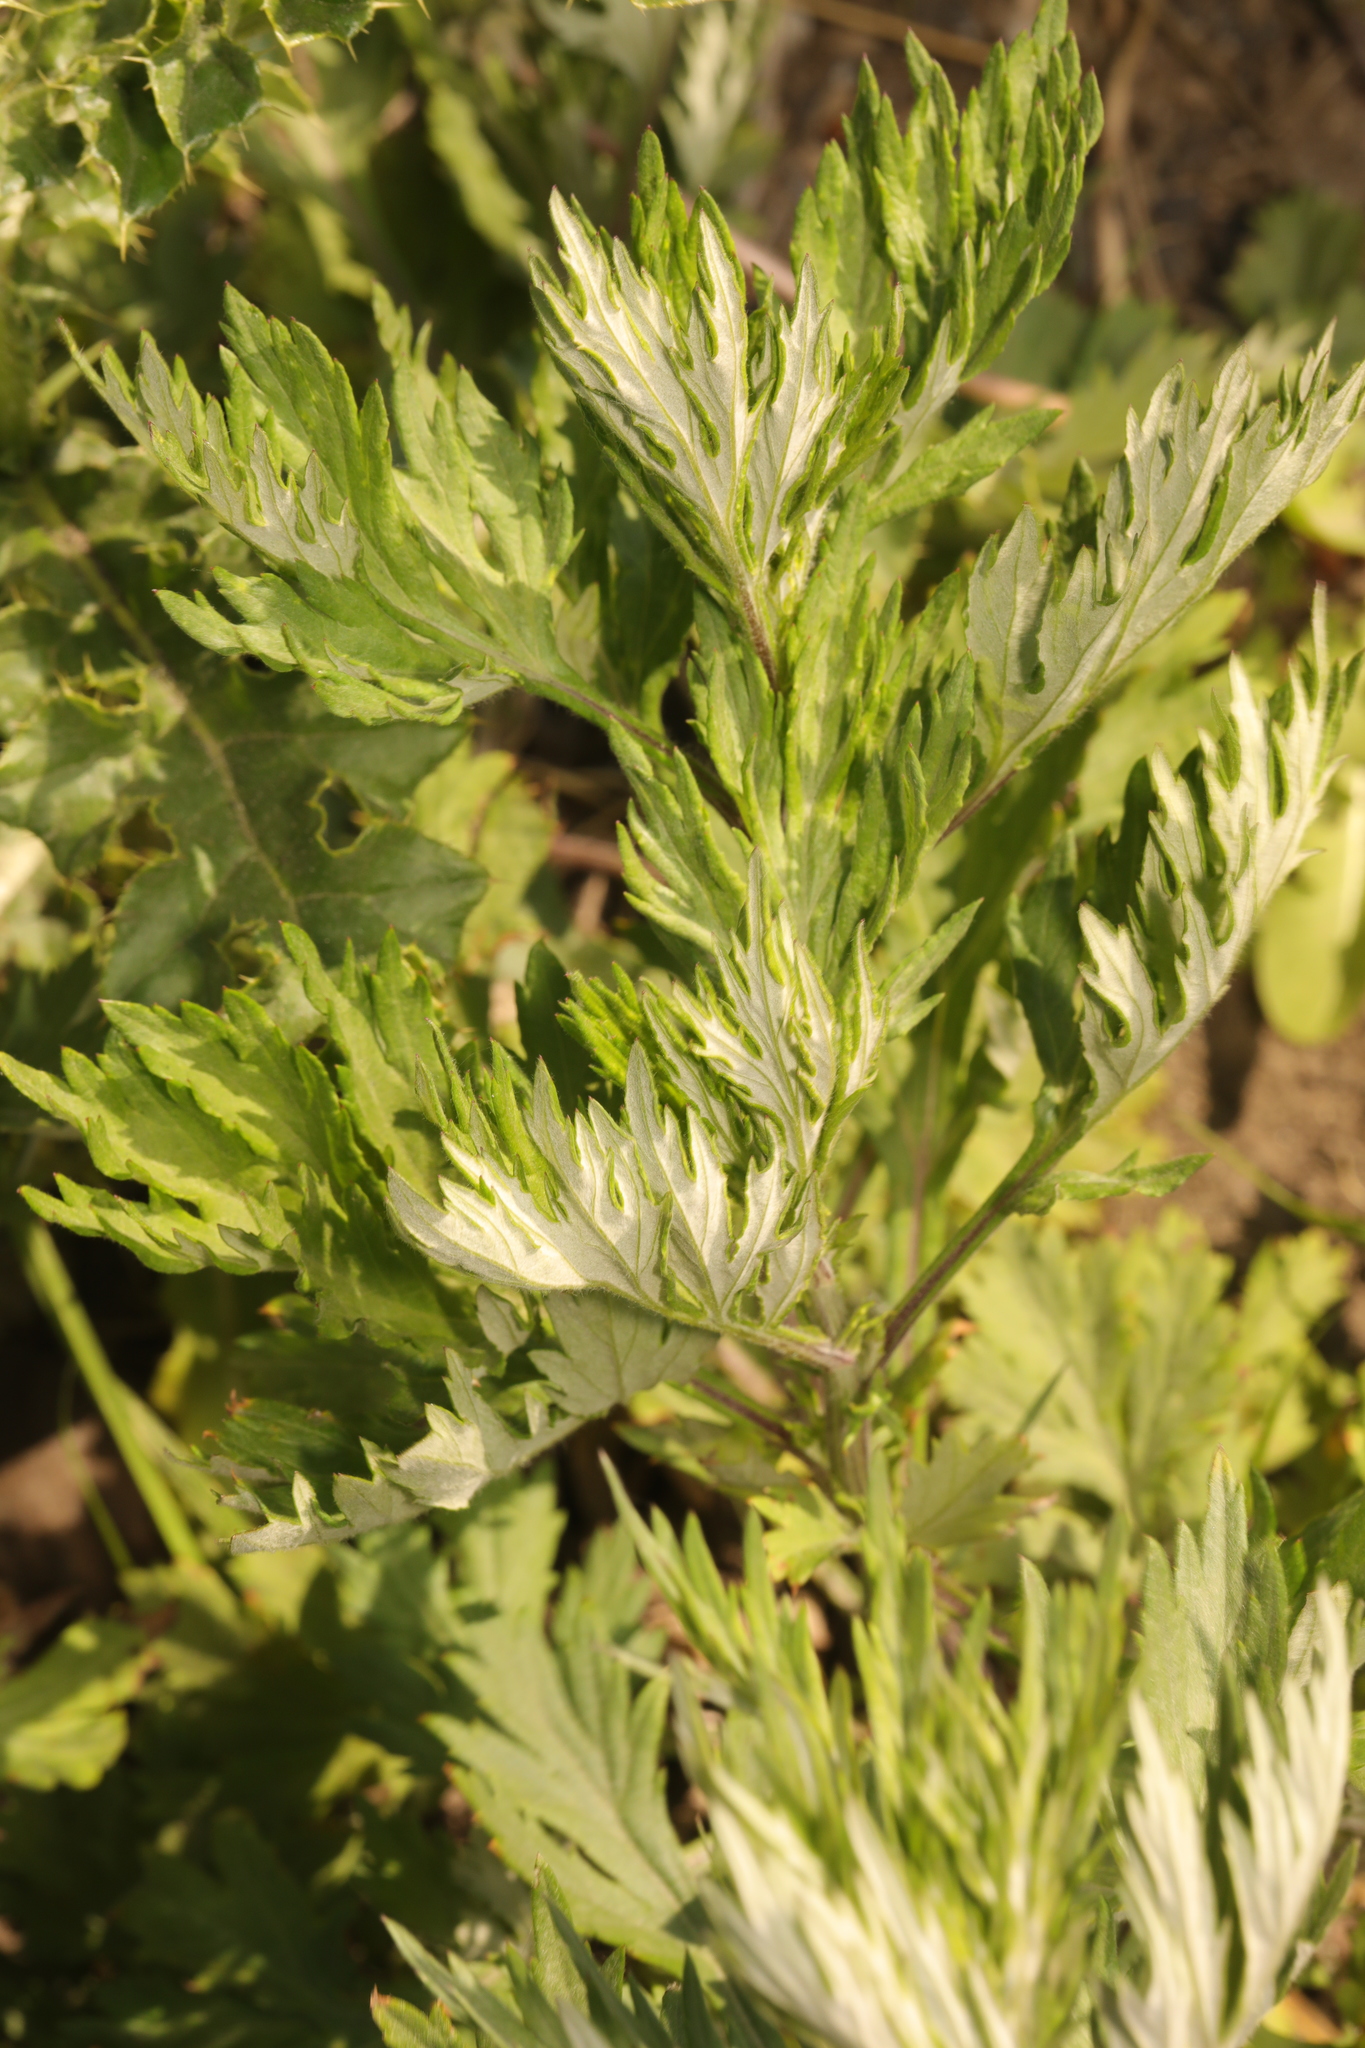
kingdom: Plantae
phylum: Tracheophyta
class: Magnoliopsida
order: Asterales
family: Asteraceae
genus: Artemisia
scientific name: Artemisia vulgaris
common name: Mugwort
